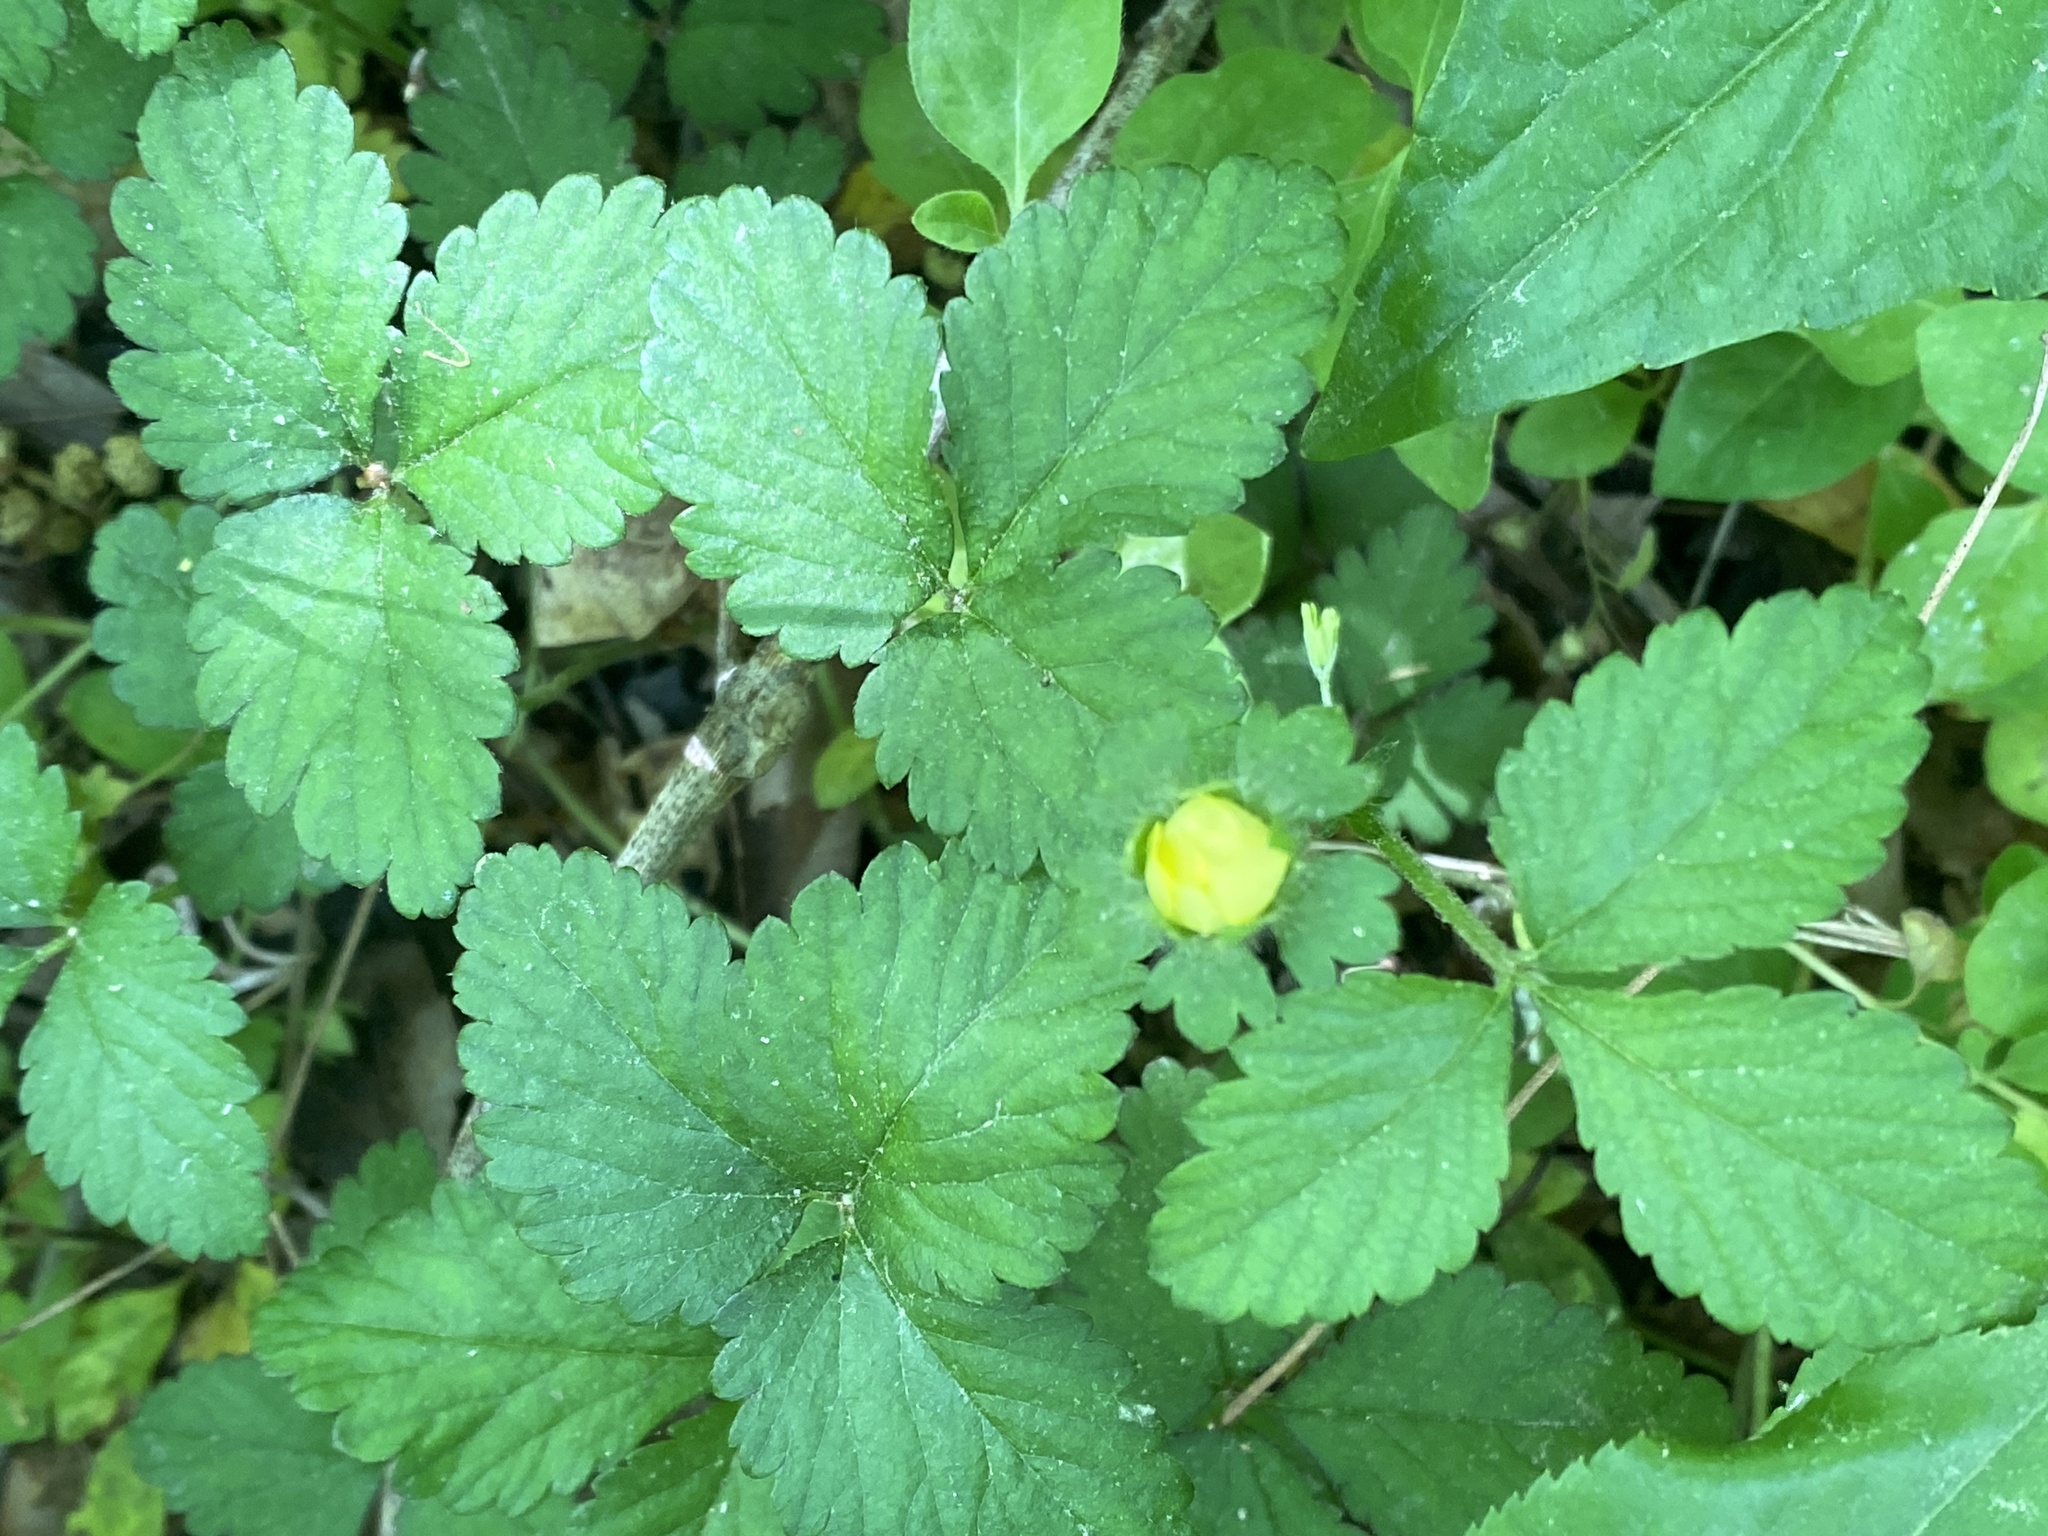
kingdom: Plantae
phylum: Tracheophyta
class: Magnoliopsida
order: Rosales
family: Rosaceae
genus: Potentilla
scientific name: Potentilla indica
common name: Yellow-flowered strawberry
